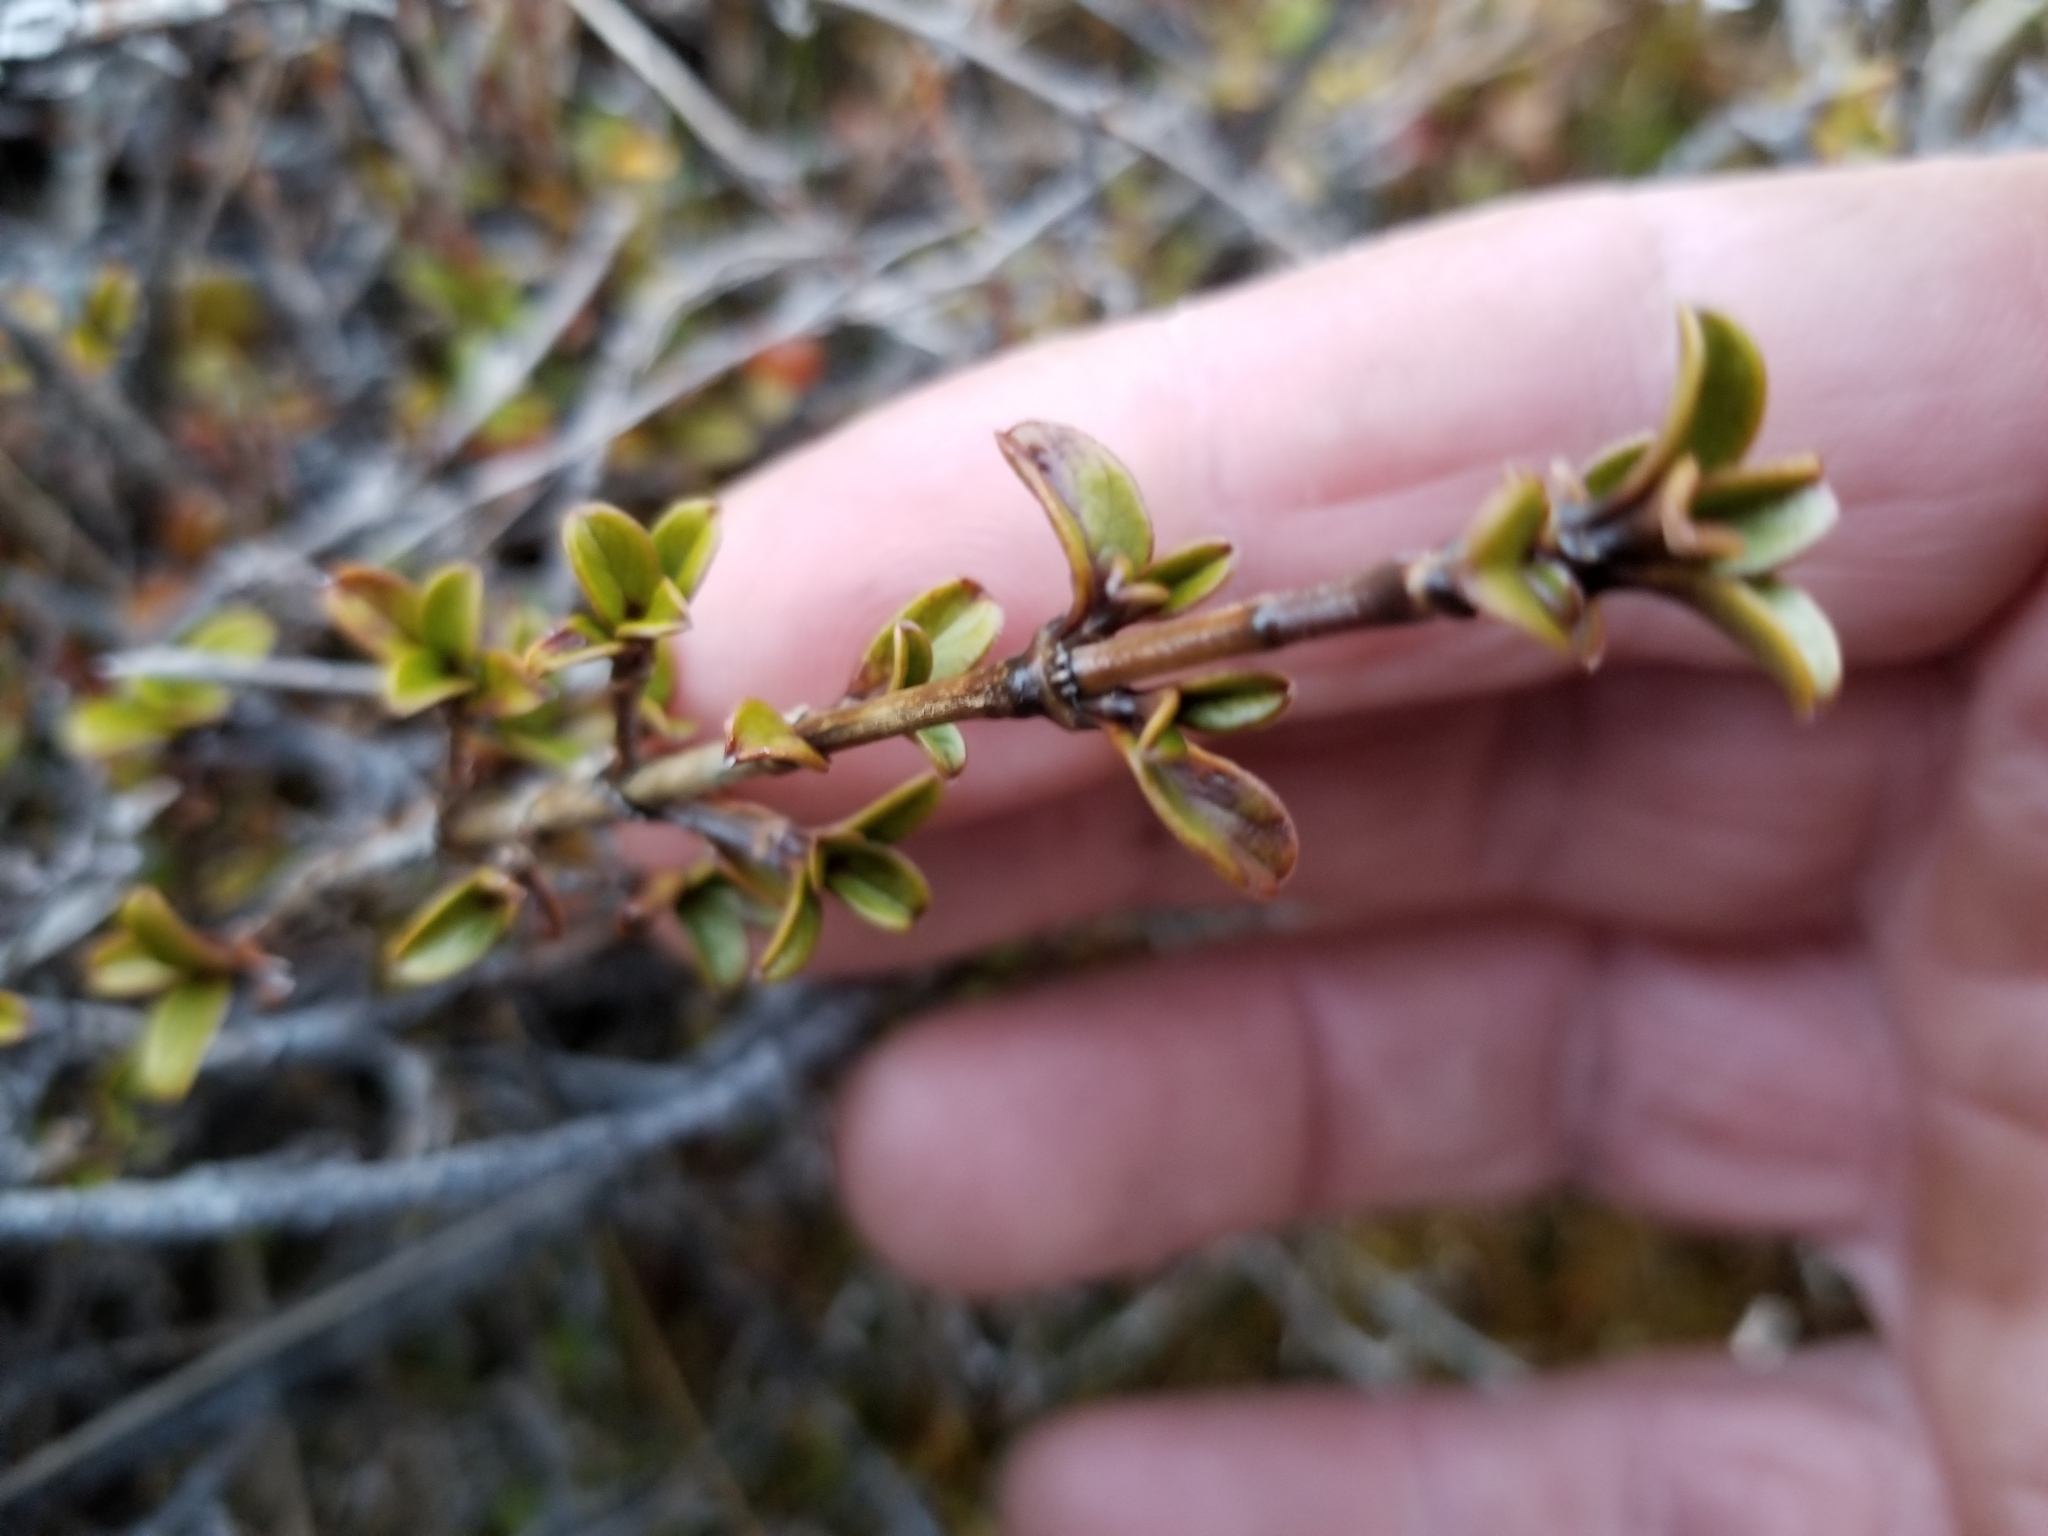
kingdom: Plantae
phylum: Tracheophyta
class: Magnoliopsida
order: Gentianales
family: Rubiaceae
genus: Coprosma
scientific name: Coprosma crenulata
